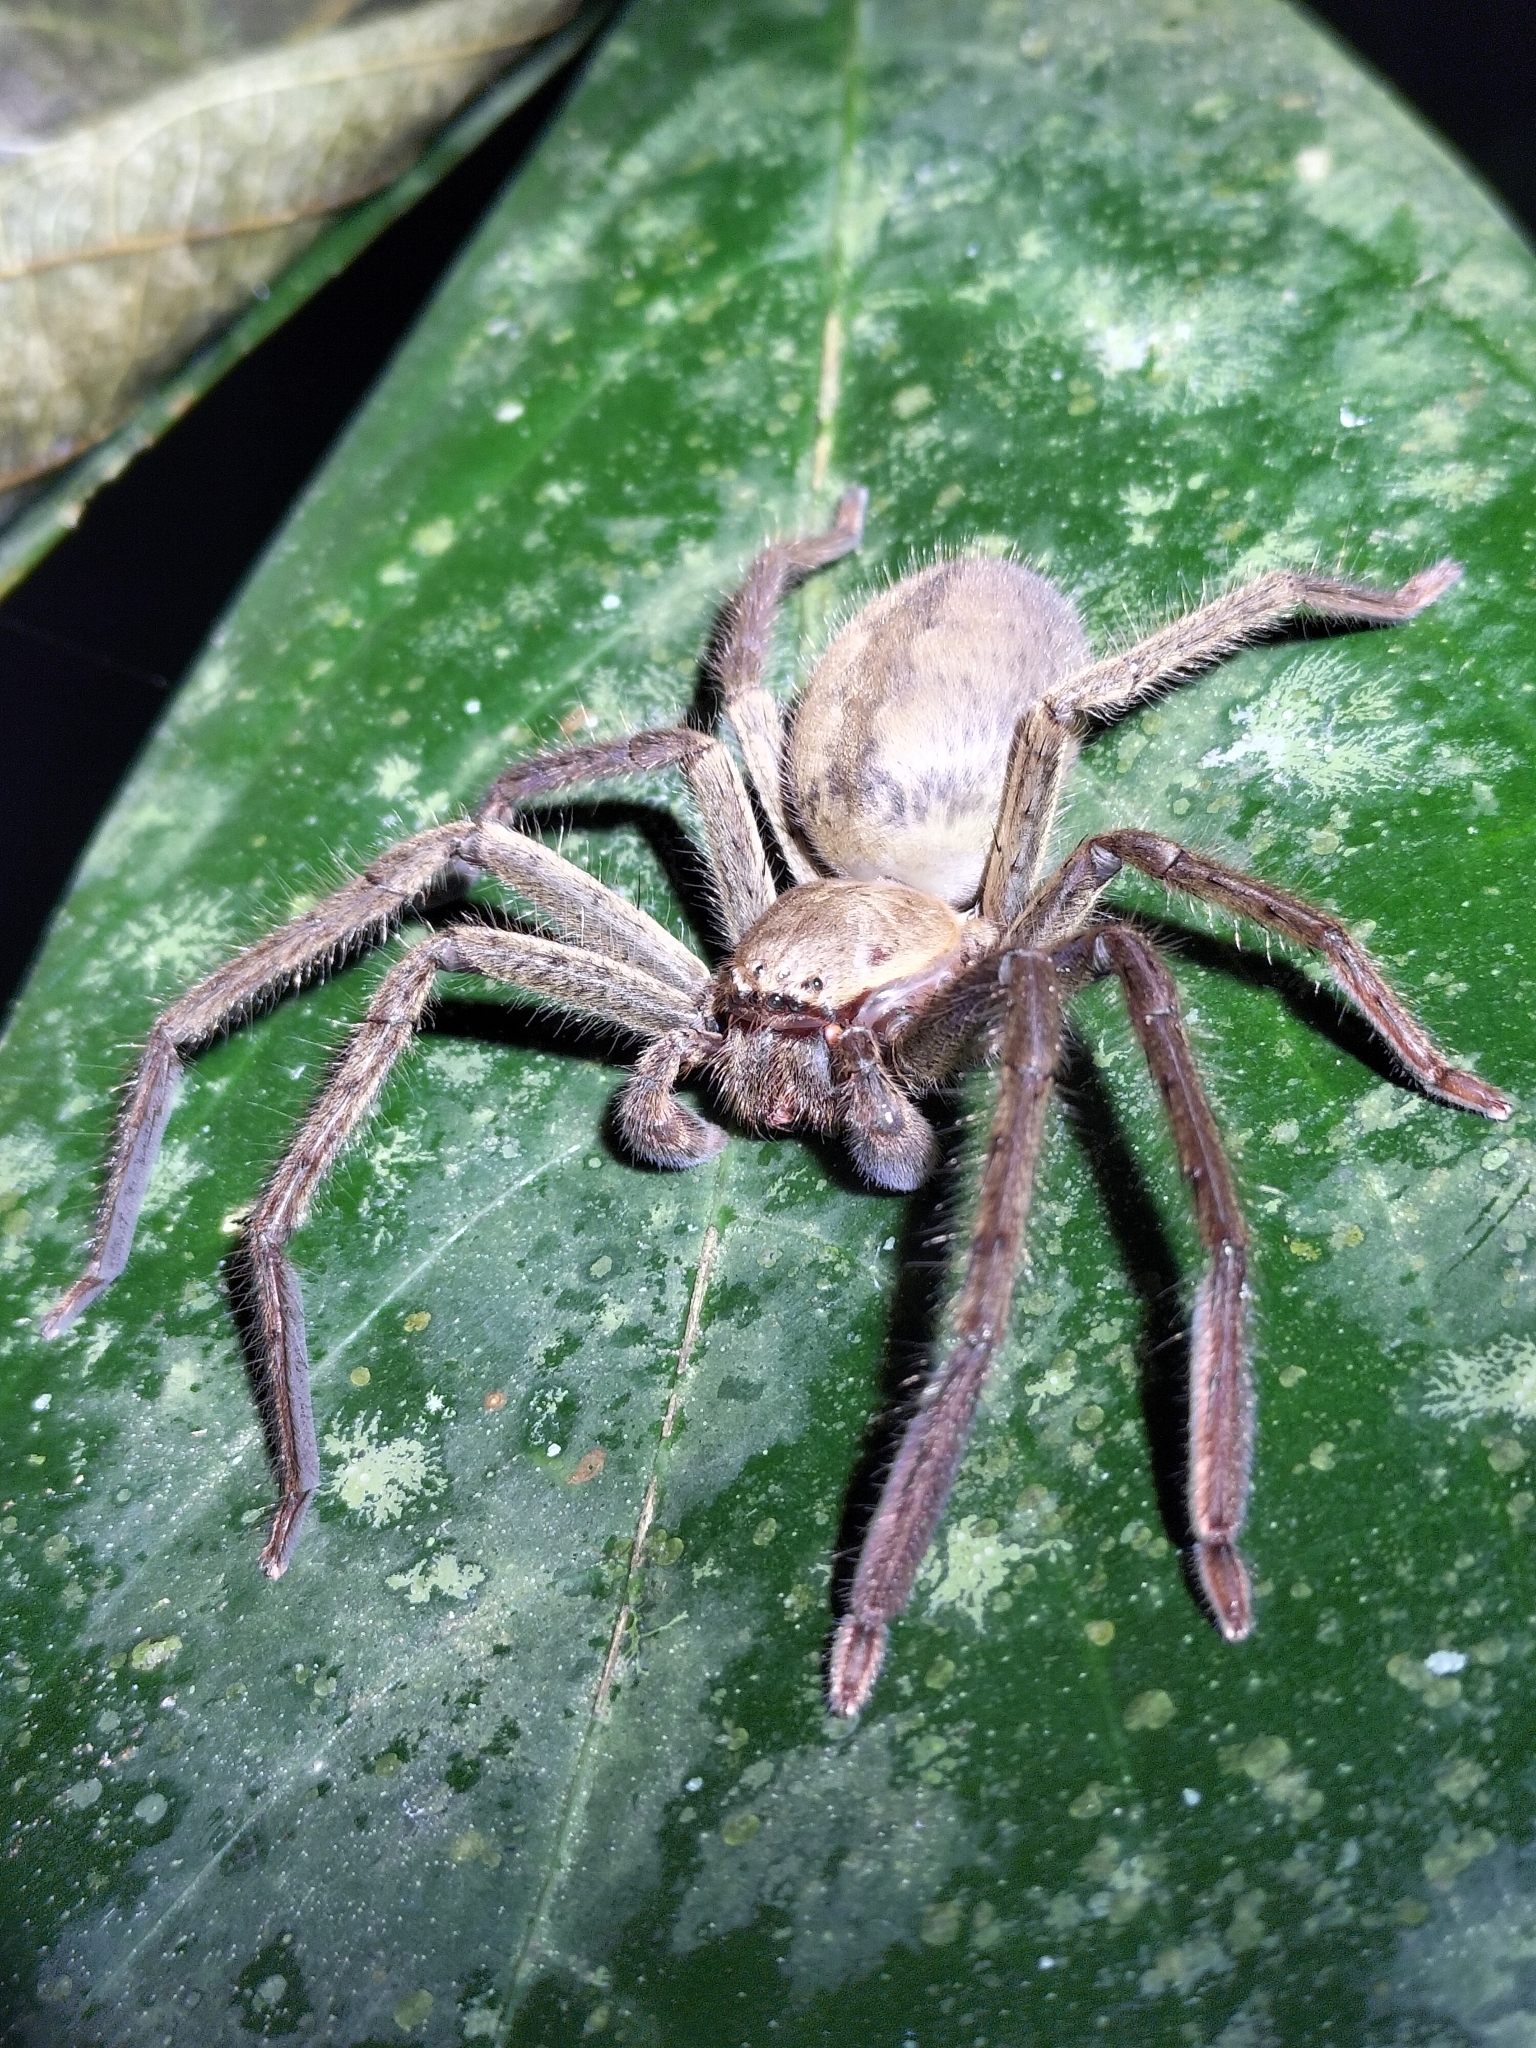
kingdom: Animalia
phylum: Arthropoda
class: Arachnida
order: Araneae
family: Sparassidae
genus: Beregama
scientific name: Beregama cordata
